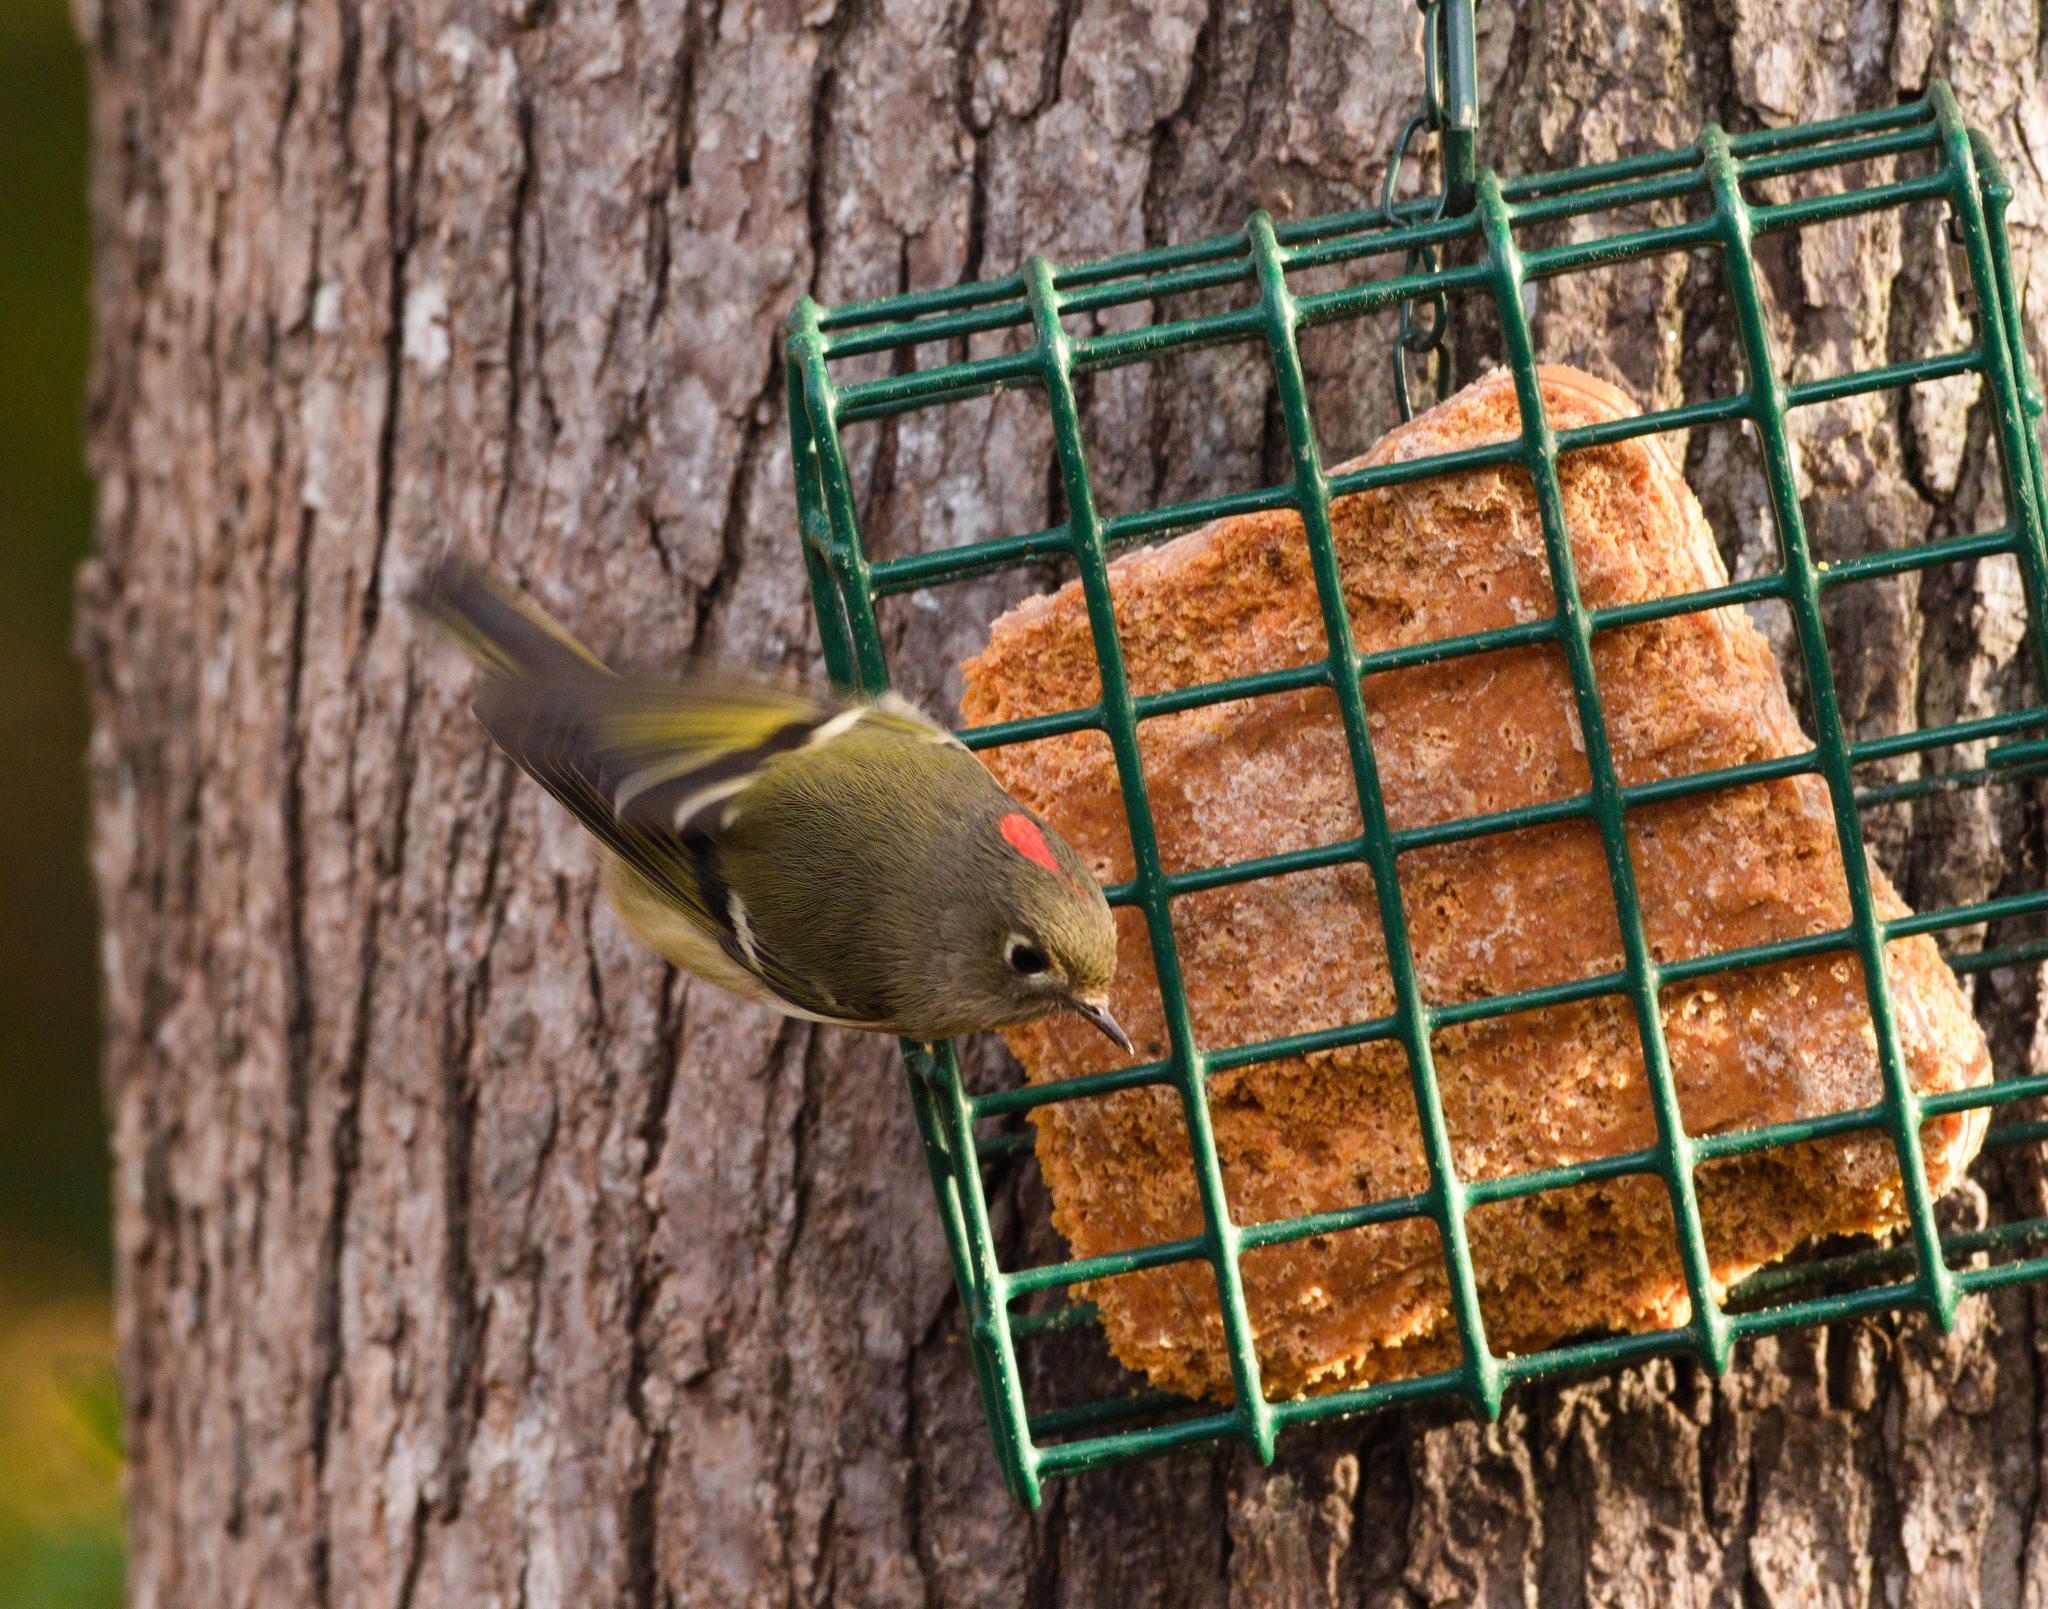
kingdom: Animalia
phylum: Chordata
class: Aves
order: Passeriformes
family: Regulidae
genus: Regulus
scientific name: Regulus calendula
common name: Ruby-crowned kinglet
